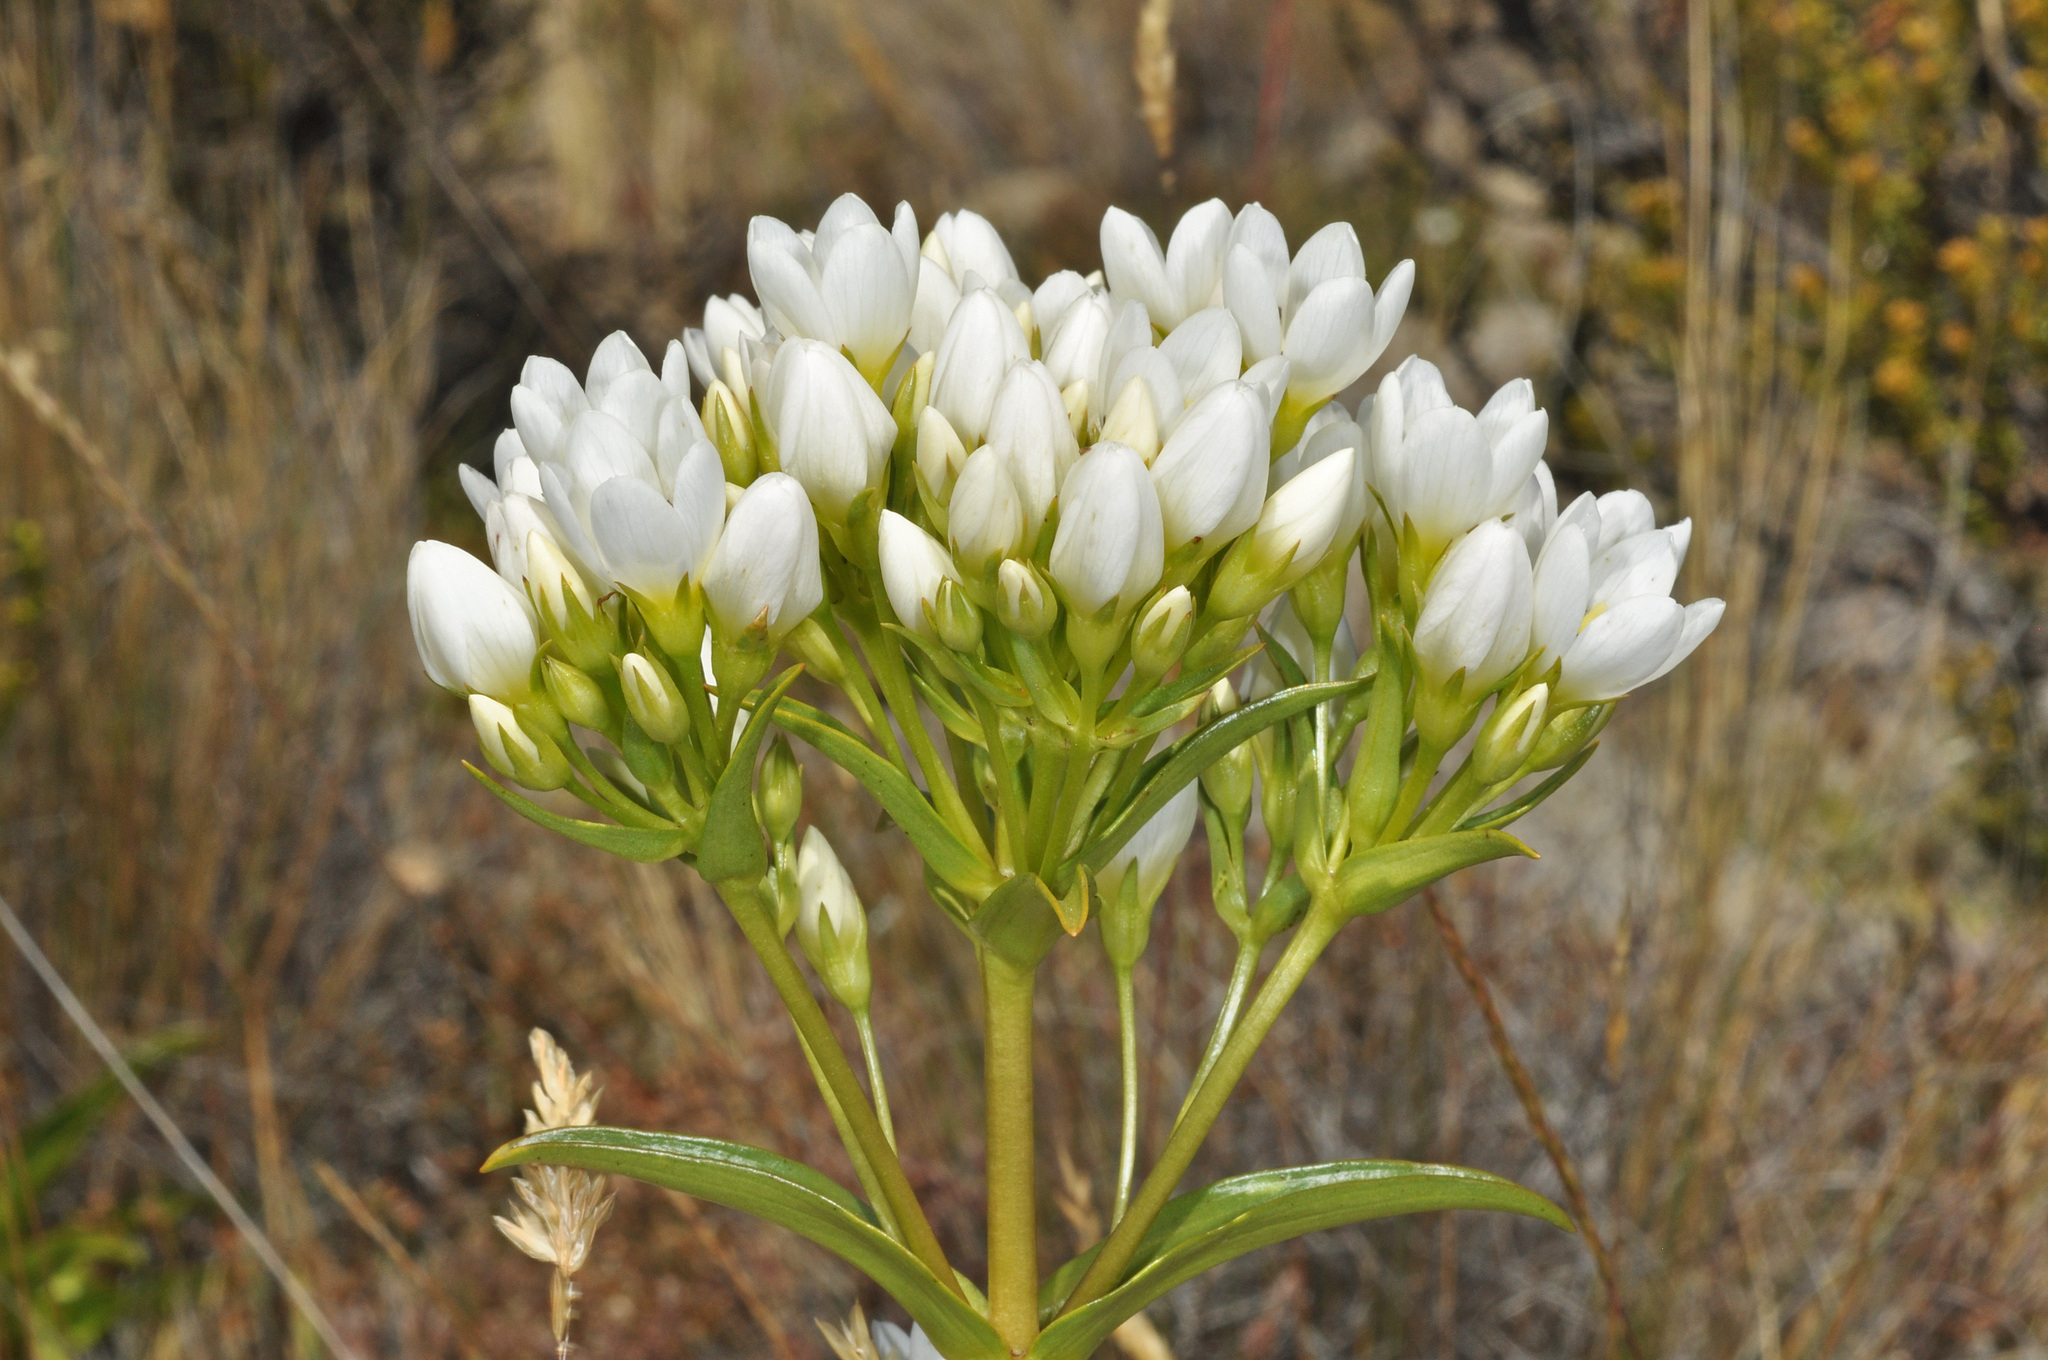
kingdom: Plantae
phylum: Tracheophyta
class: Magnoliopsida
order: Gentianales
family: Gentianaceae
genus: Gentianella
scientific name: Gentianella corymbifera
